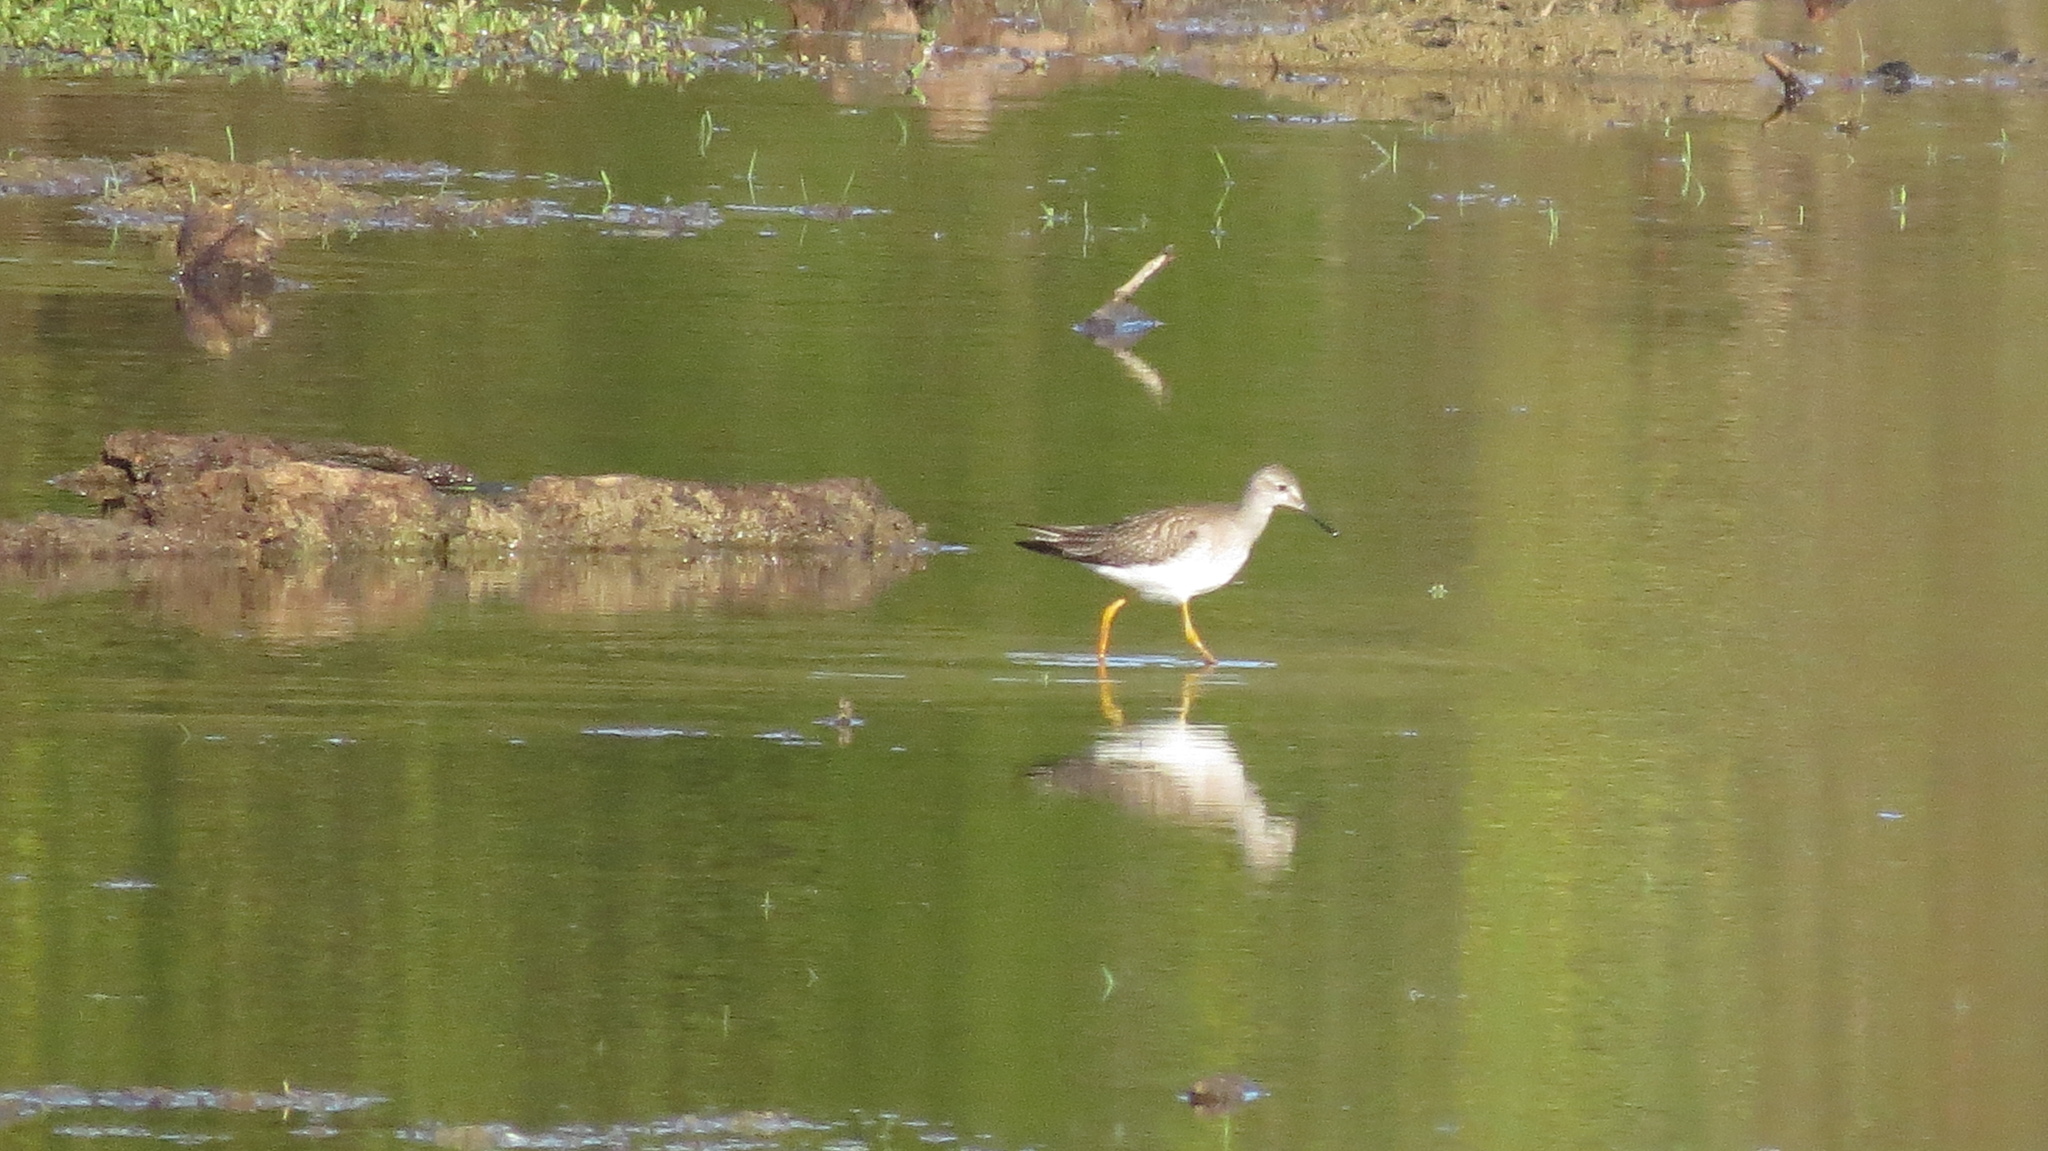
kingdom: Animalia
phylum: Chordata
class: Aves
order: Charadriiformes
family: Scolopacidae
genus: Tringa
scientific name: Tringa flavipes
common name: Lesser yellowlegs
